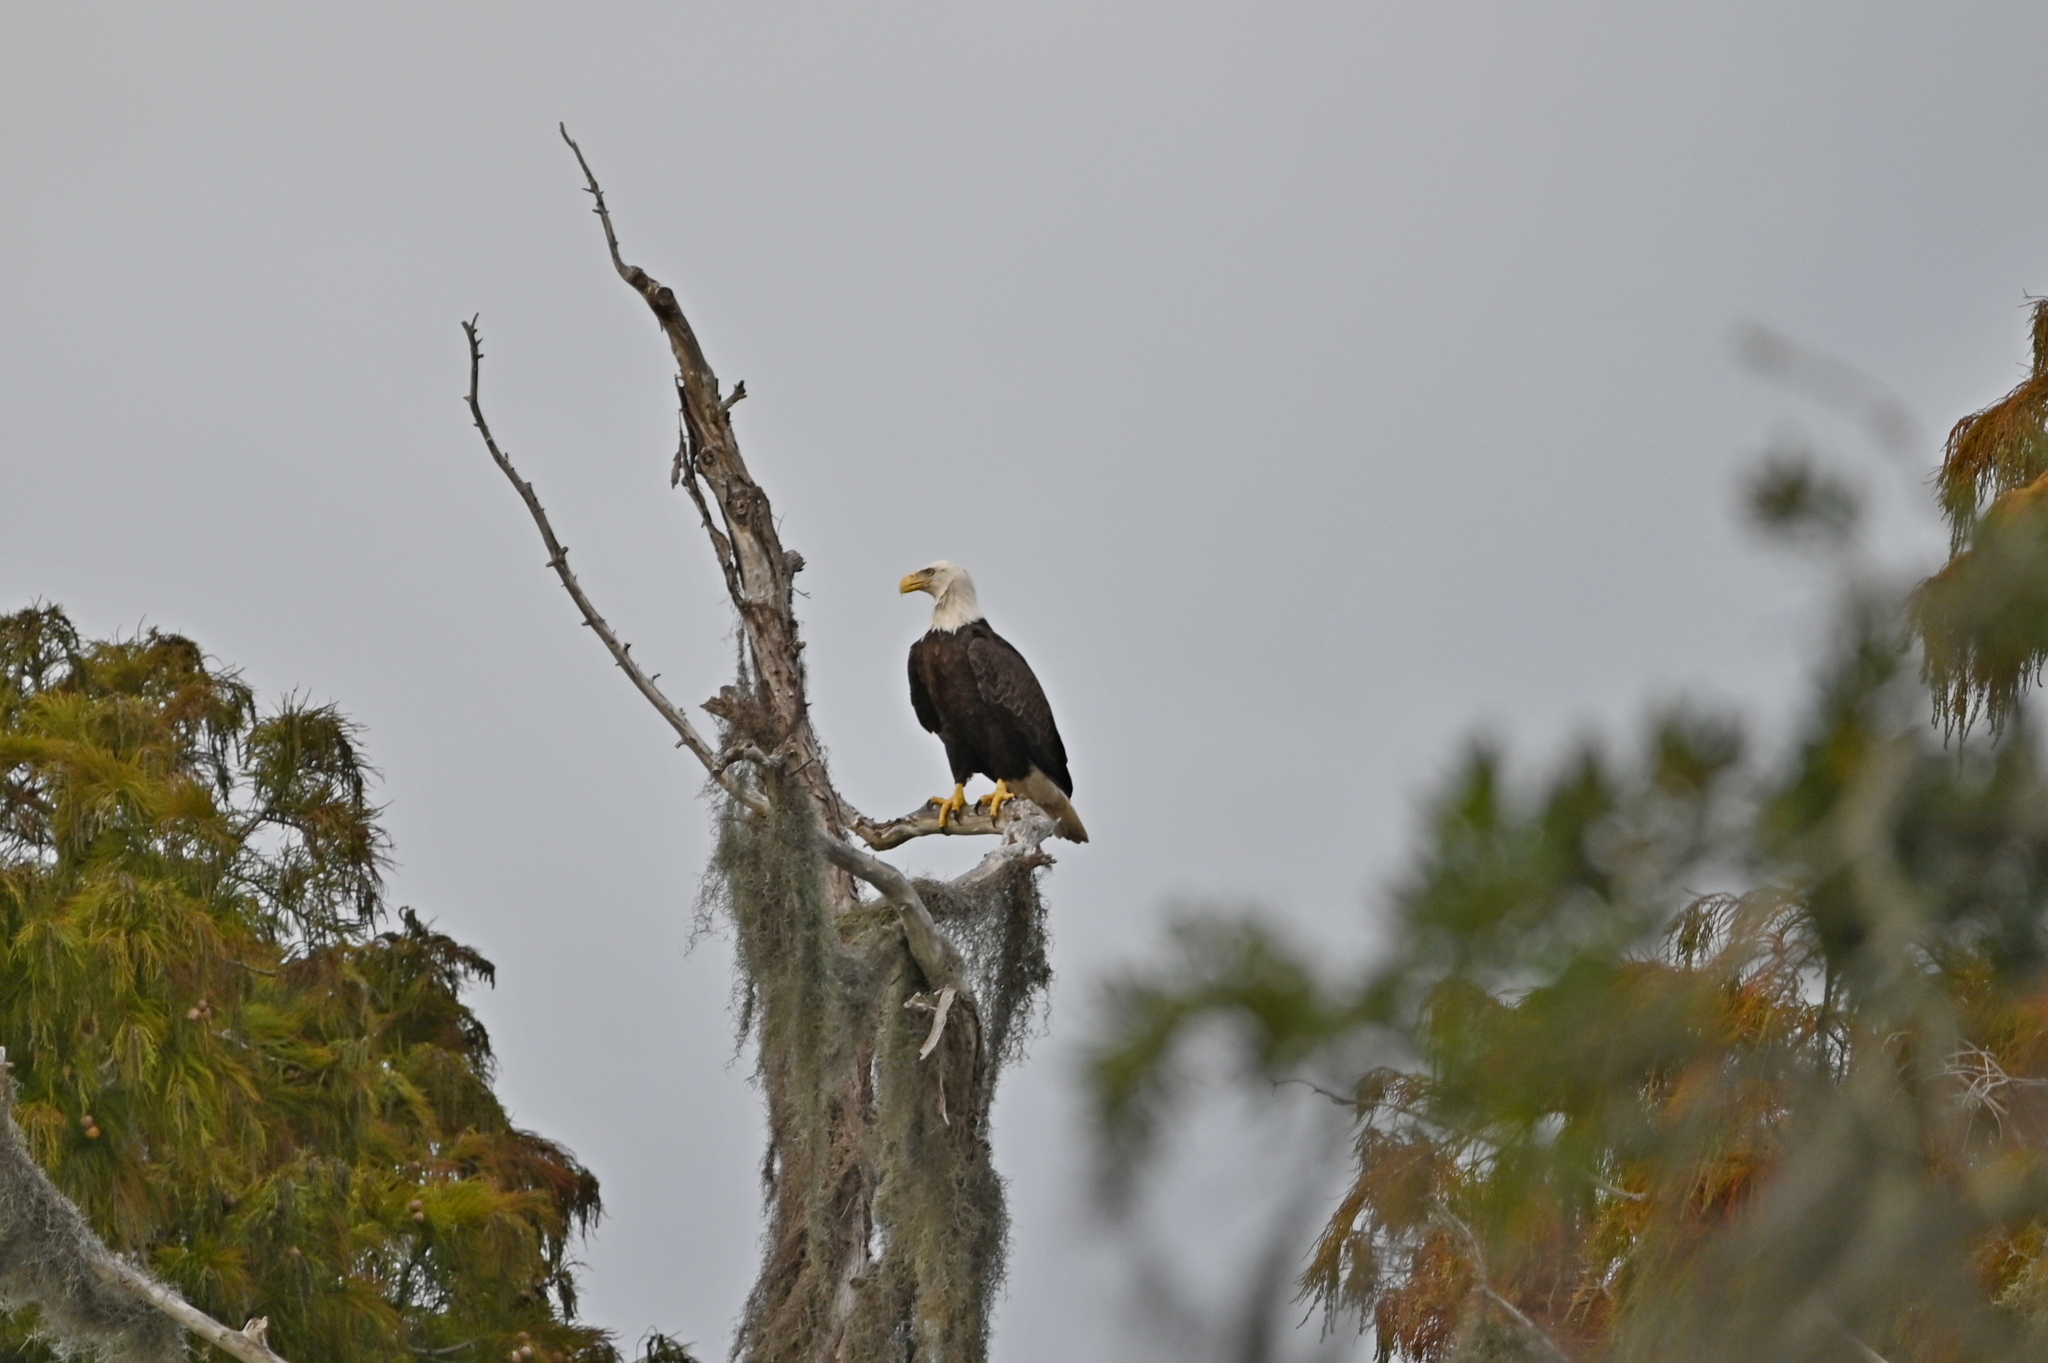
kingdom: Animalia
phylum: Chordata
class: Aves
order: Accipitriformes
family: Accipitridae
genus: Haliaeetus
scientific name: Haliaeetus leucocephalus
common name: Bald eagle
